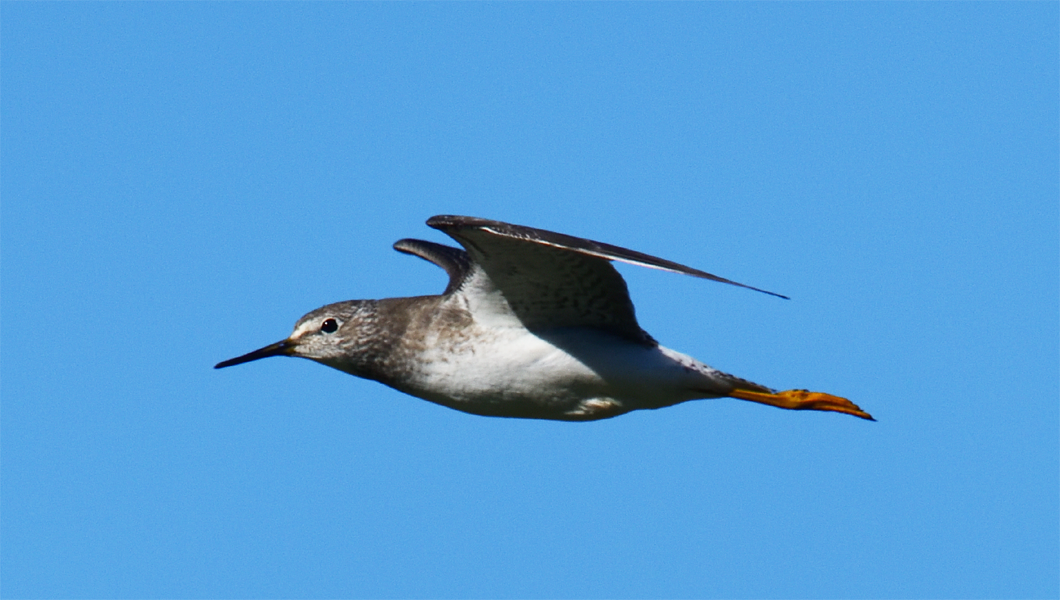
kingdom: Animalia
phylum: Chordata
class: Aves
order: Charadriiformes
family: Scolopacidae
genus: Tringa
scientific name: Tringa flavipes
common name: Lesser yellowlegs
